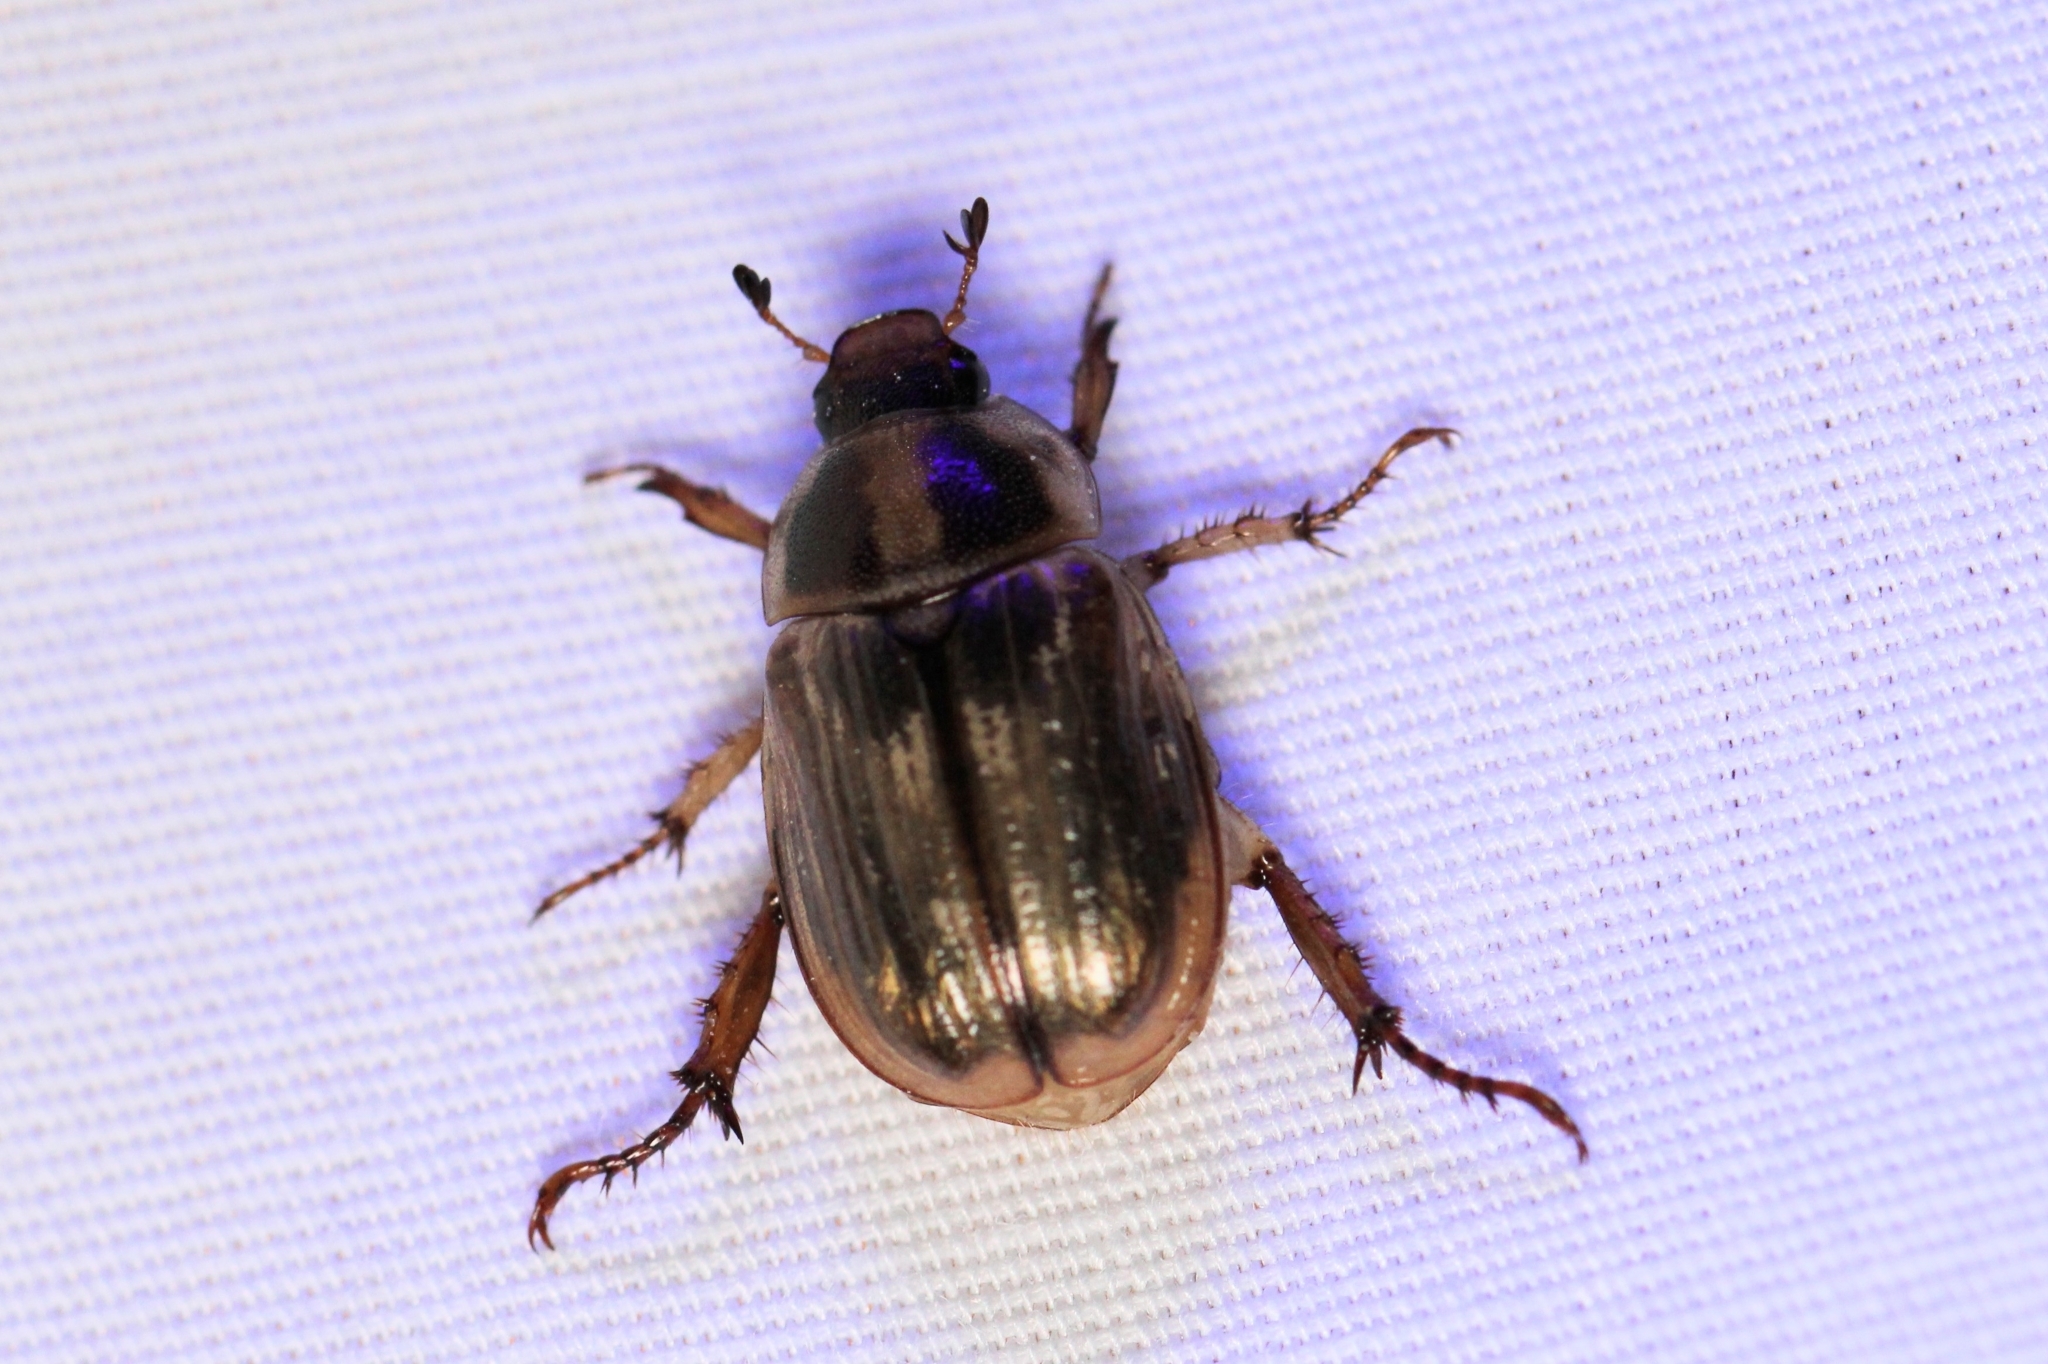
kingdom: Animalia
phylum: Arthropoda
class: Insecta
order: Coleoptera
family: Scarabaeidae
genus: Exomala
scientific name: Exomala orientalis
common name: Oriental beetle
